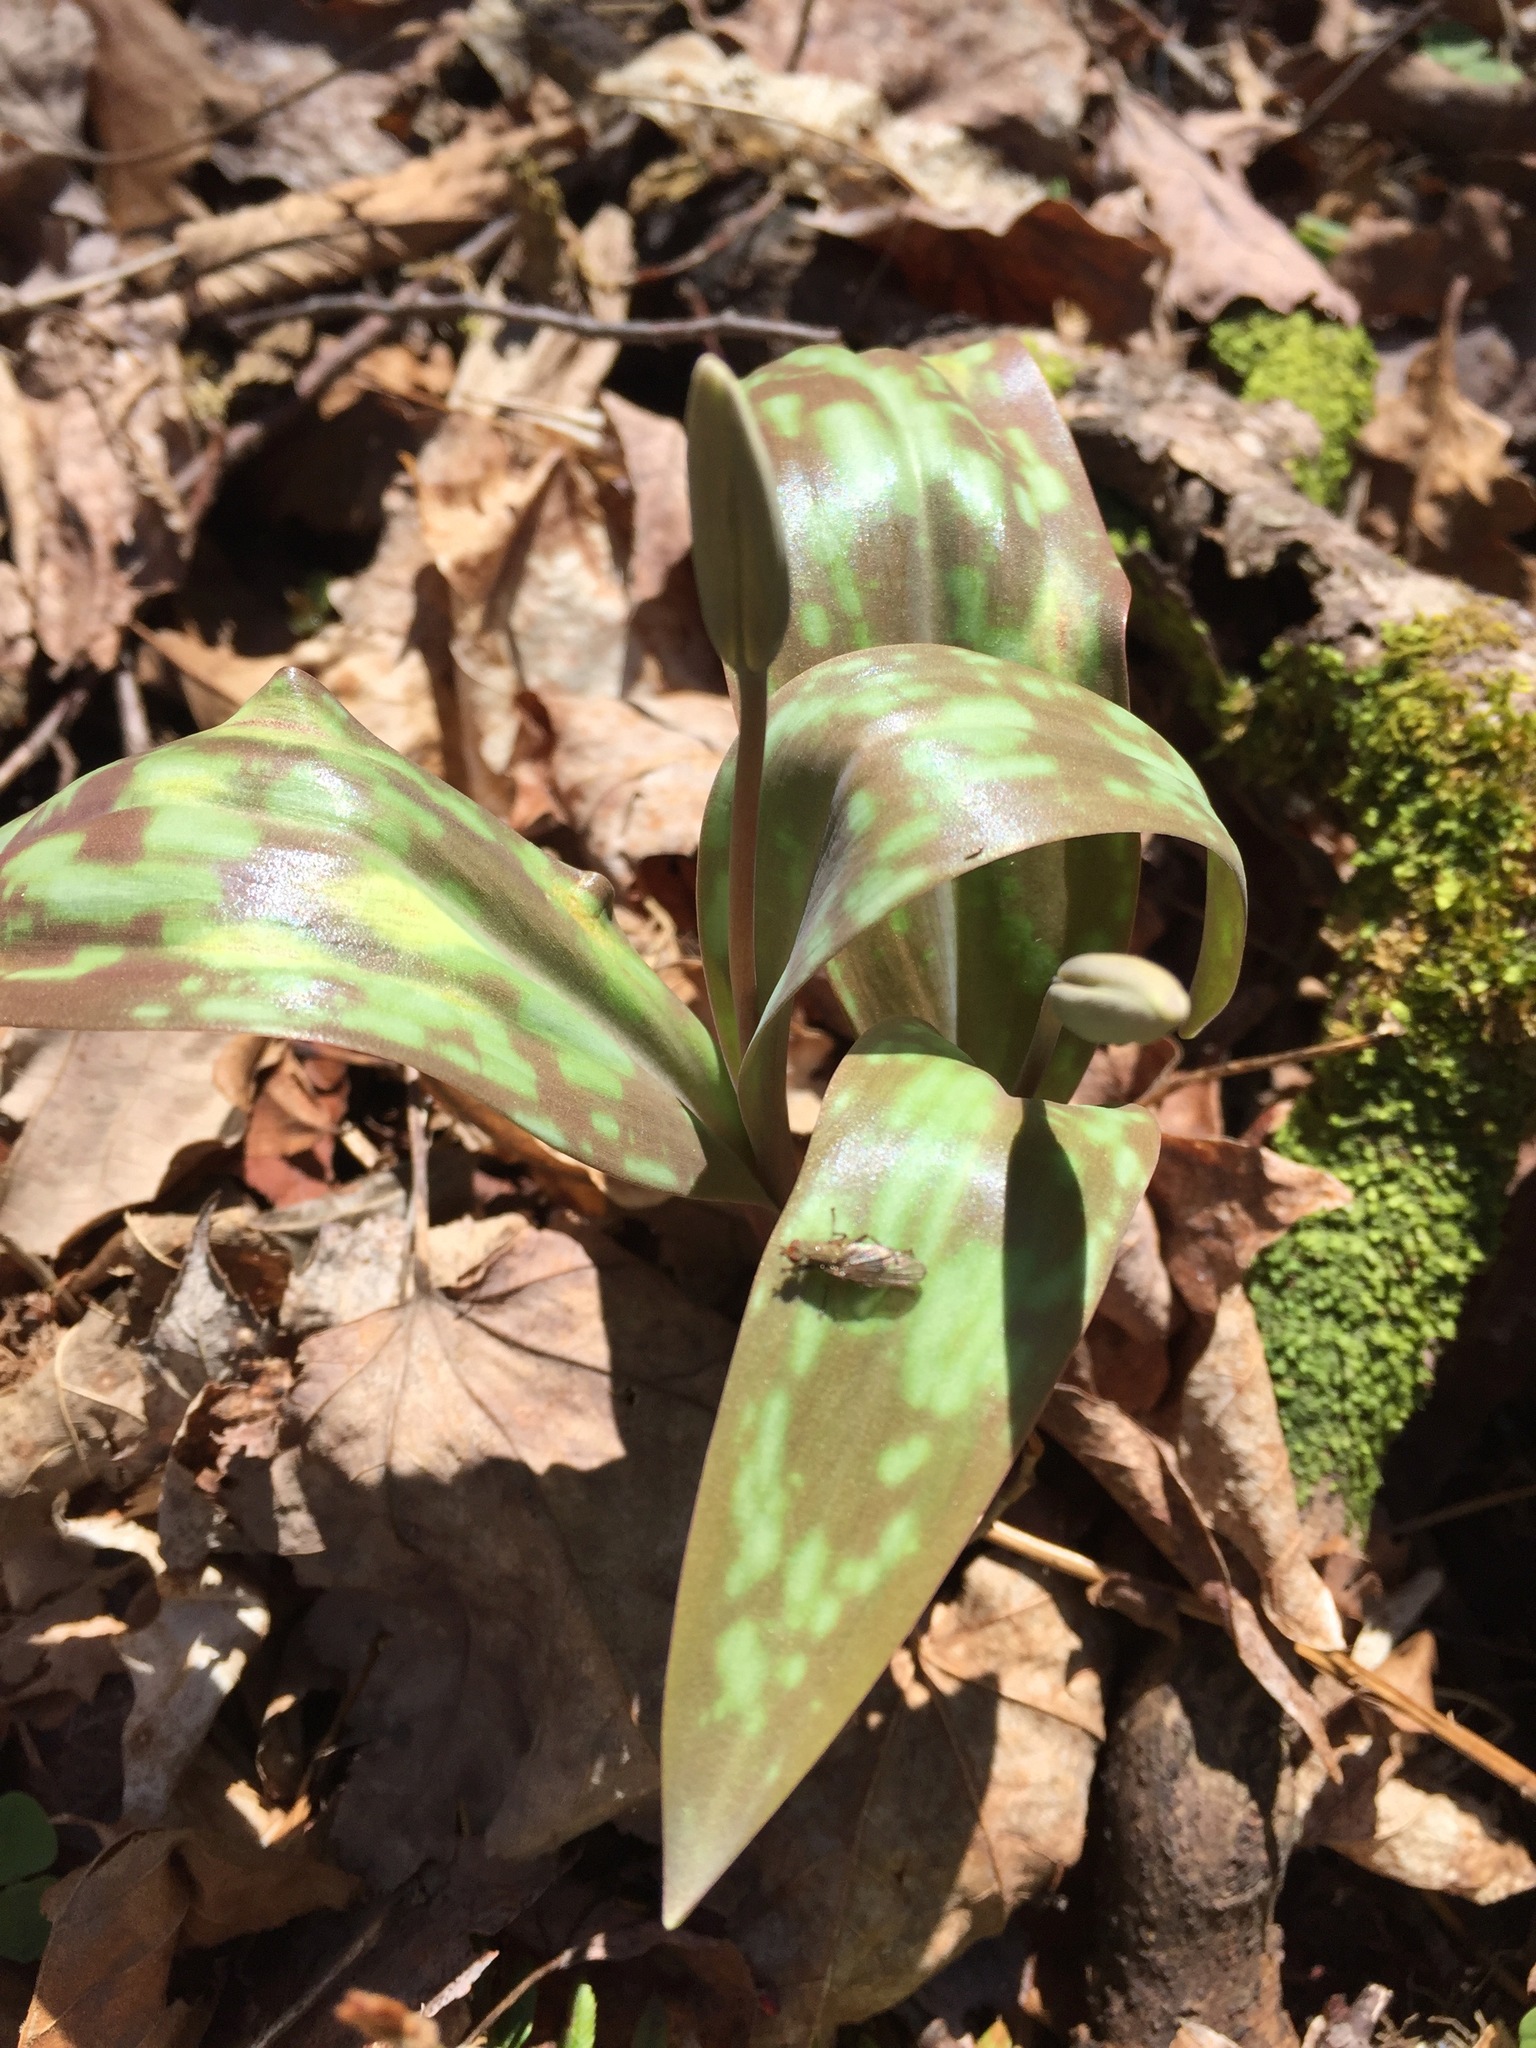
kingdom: Plantae
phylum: Tracheophyta
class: Liliopsida
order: Liliales
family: Liliaceae
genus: Erythronium
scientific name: Erythronium americanum
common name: Yellow adder's-tongue
